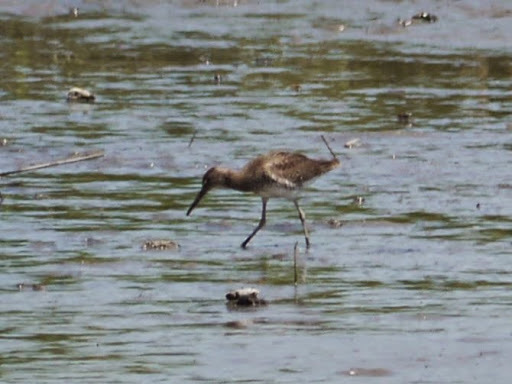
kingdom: Animalia
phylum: Chordata
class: Aves
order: Charadriiformes
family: Scolopacidae
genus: Tringa
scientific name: Tringa semipalmata
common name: Willet
